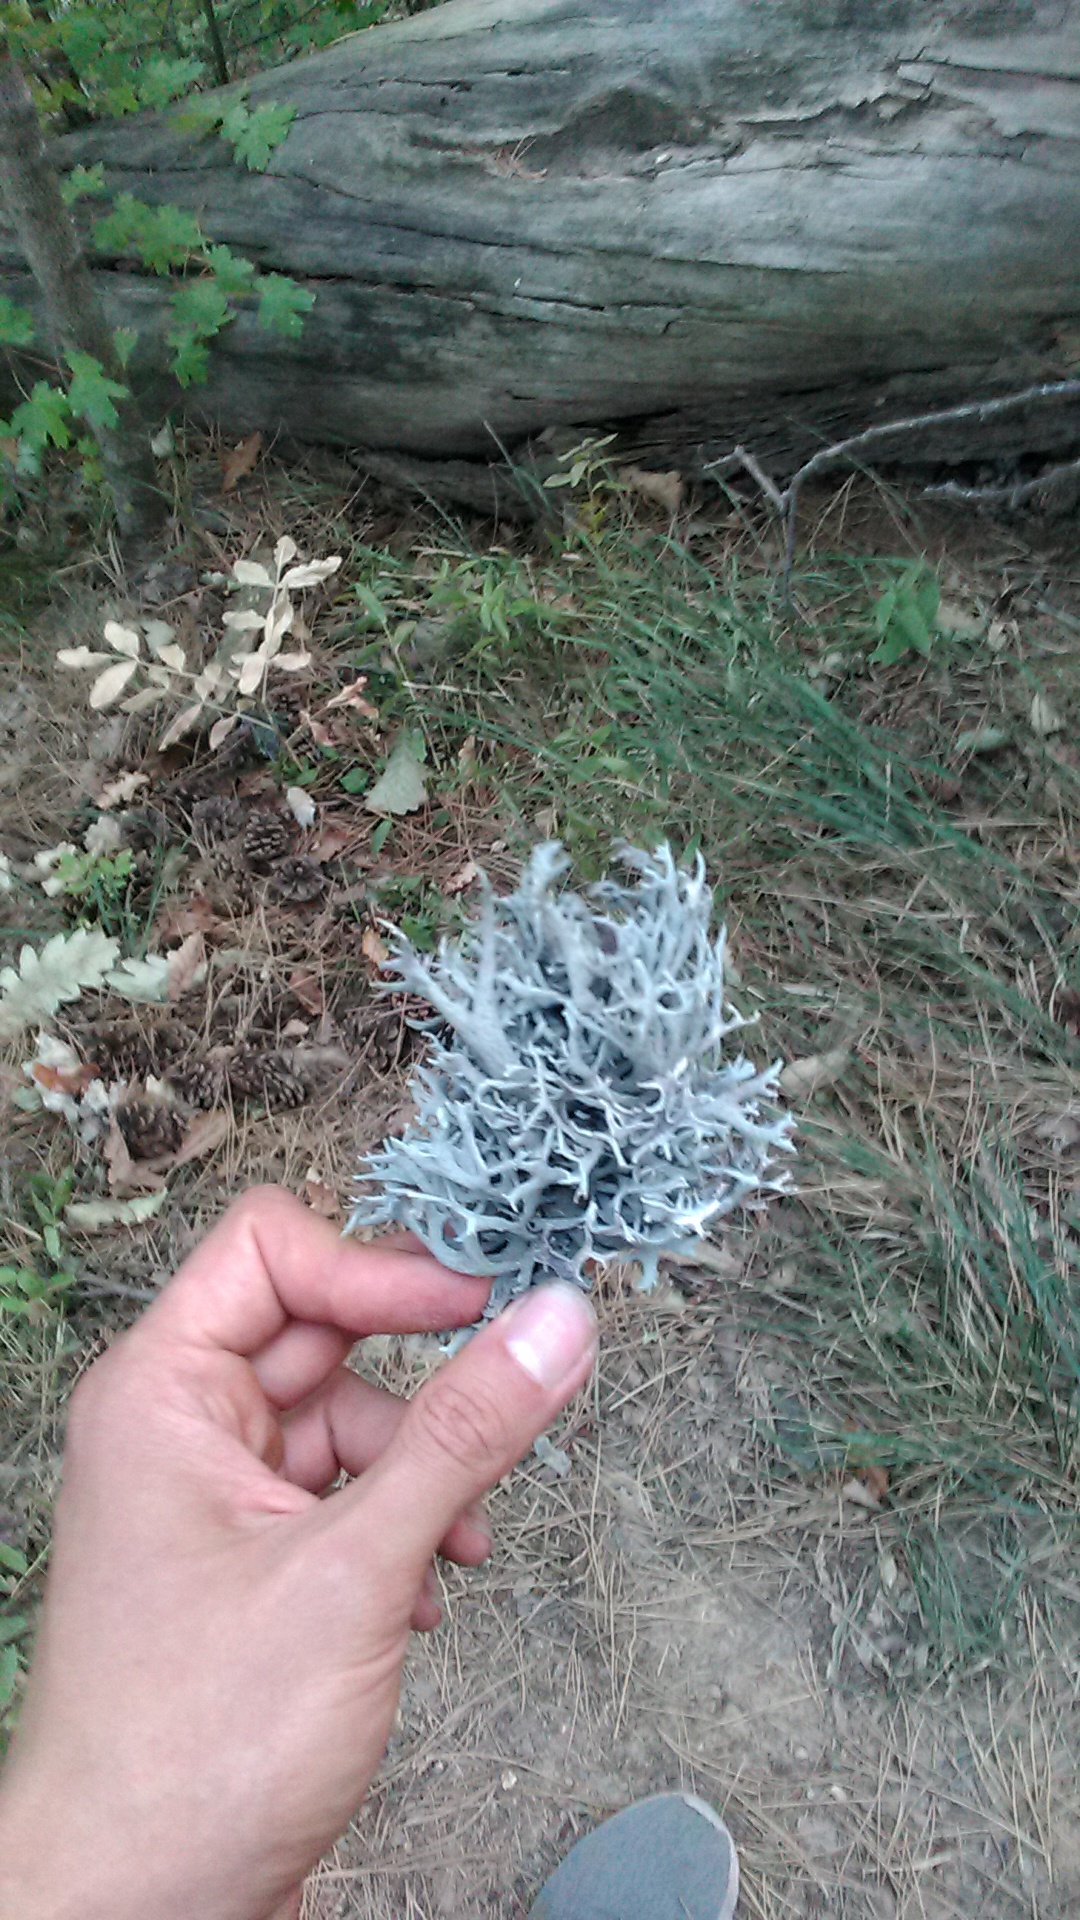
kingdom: Fungi
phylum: Ascomycota
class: Lecanoromycetes
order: Lecanorales
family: Parmeliaceae
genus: Pseudevernia
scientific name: Pseudevernia furfuracea
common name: Tree moss
